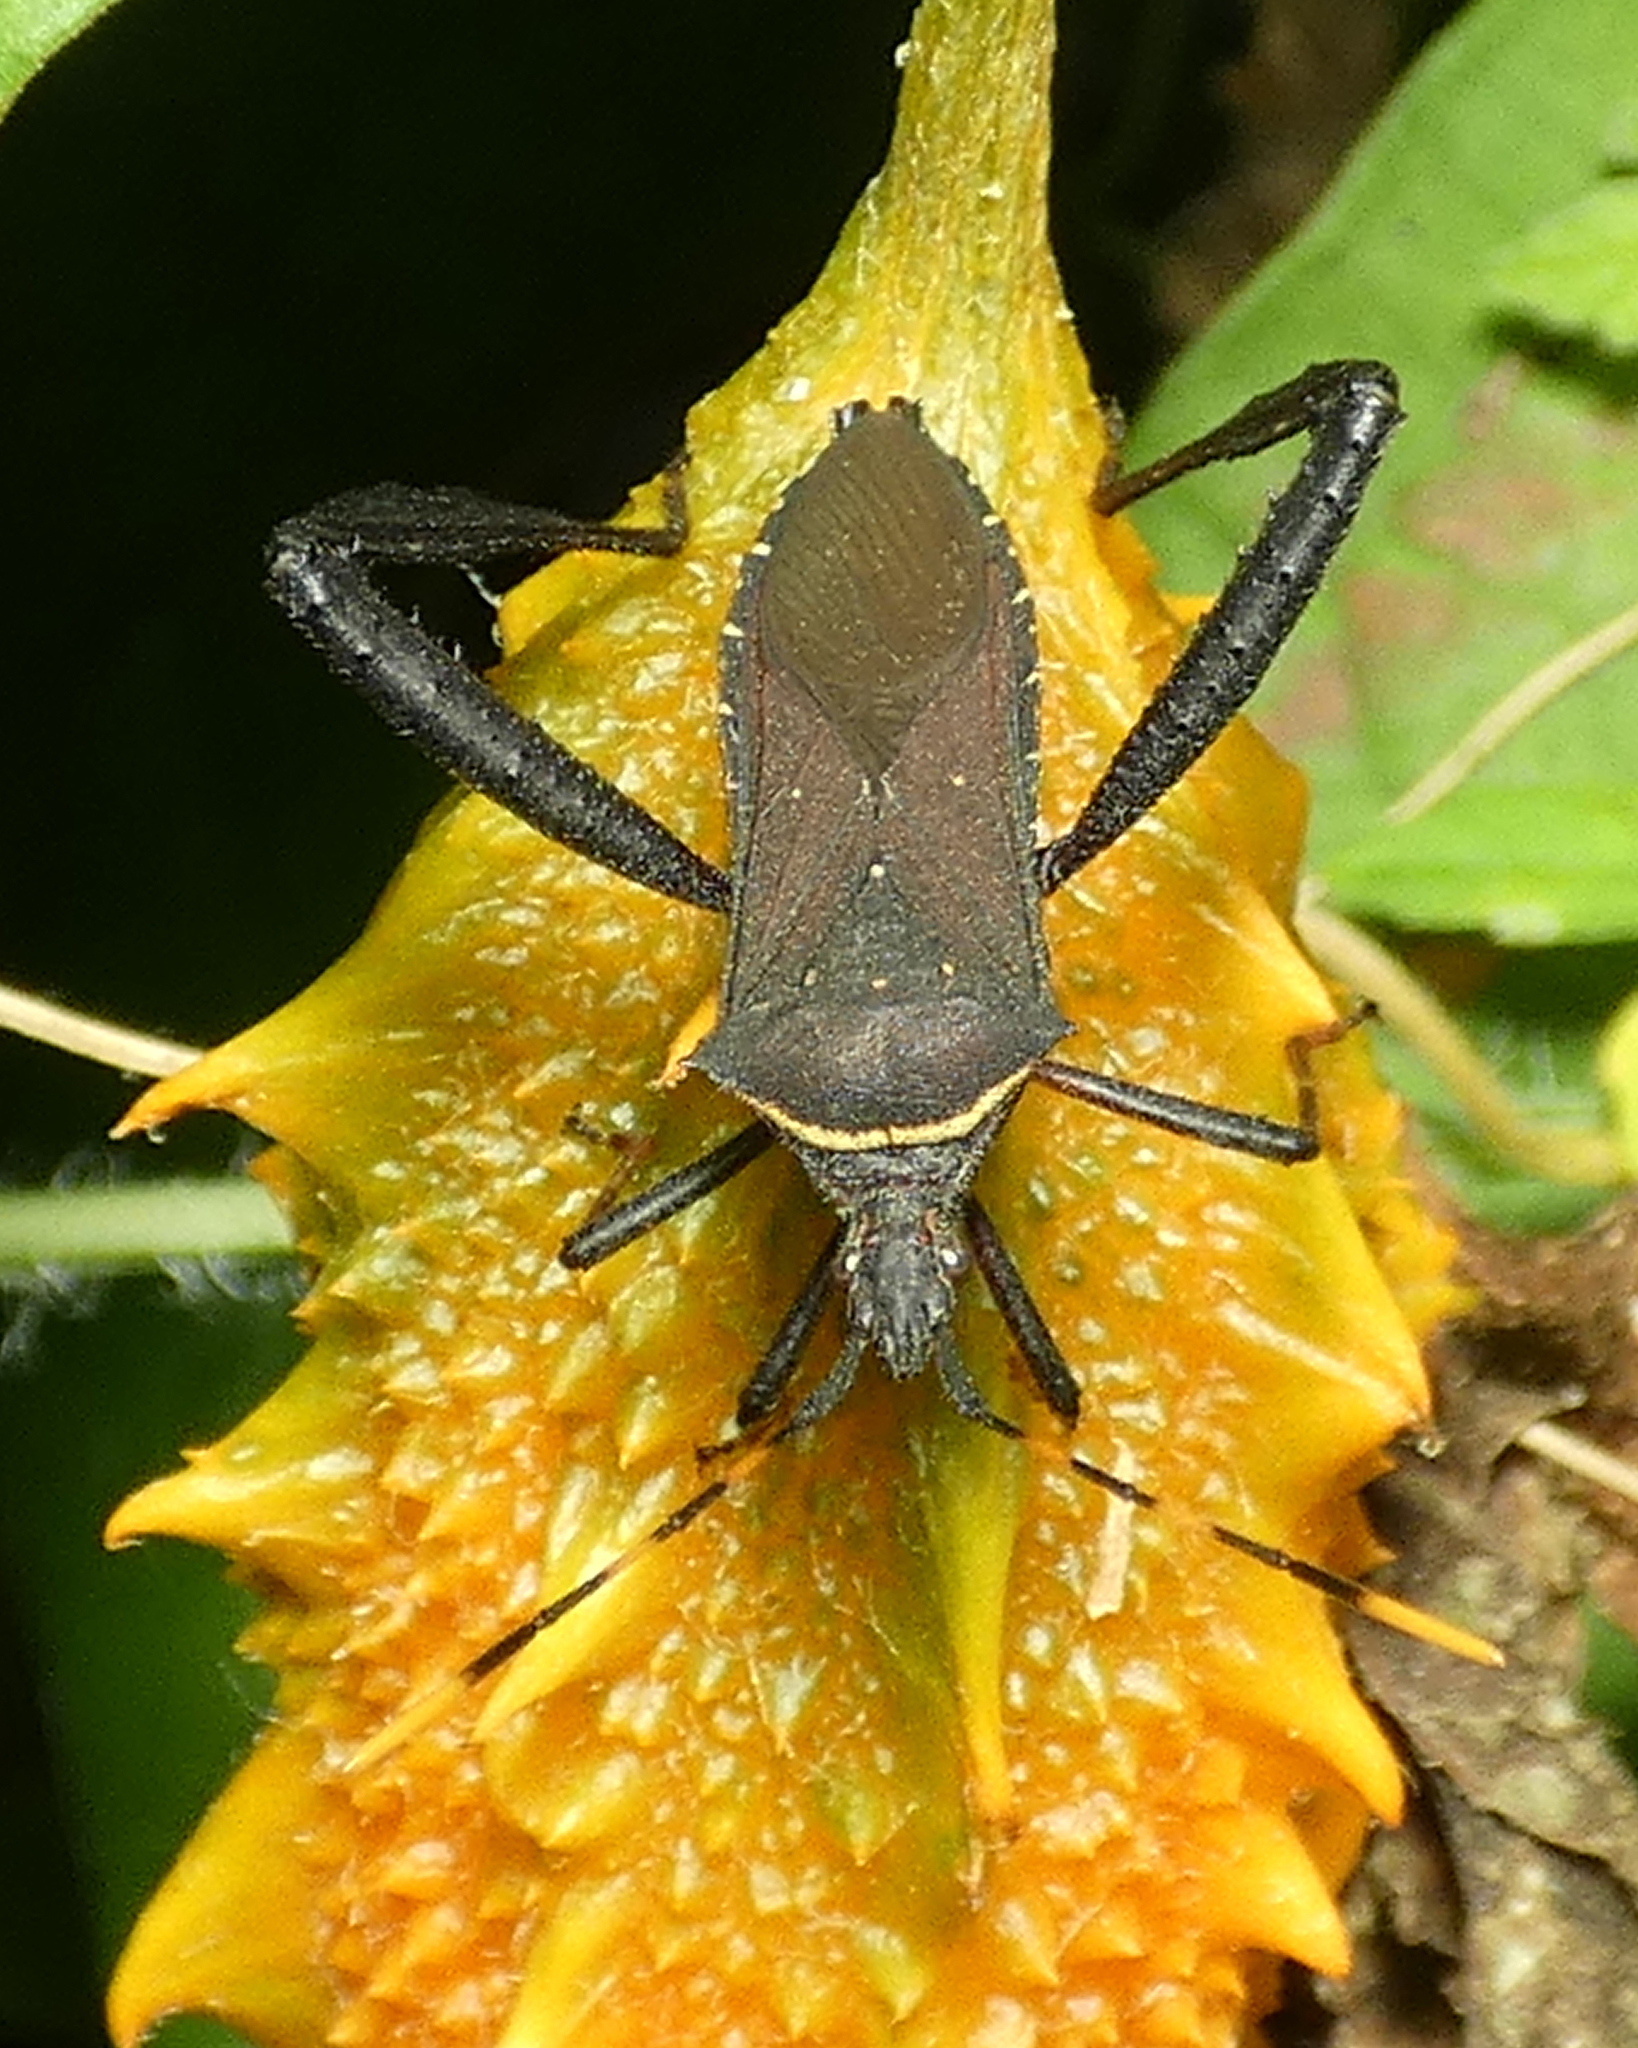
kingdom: Animalia
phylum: Arthropoda
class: Insecta
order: Hemiptera
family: Coreidae
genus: Leptoglossus
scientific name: Leptoglossus gonagra
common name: Citron bug
